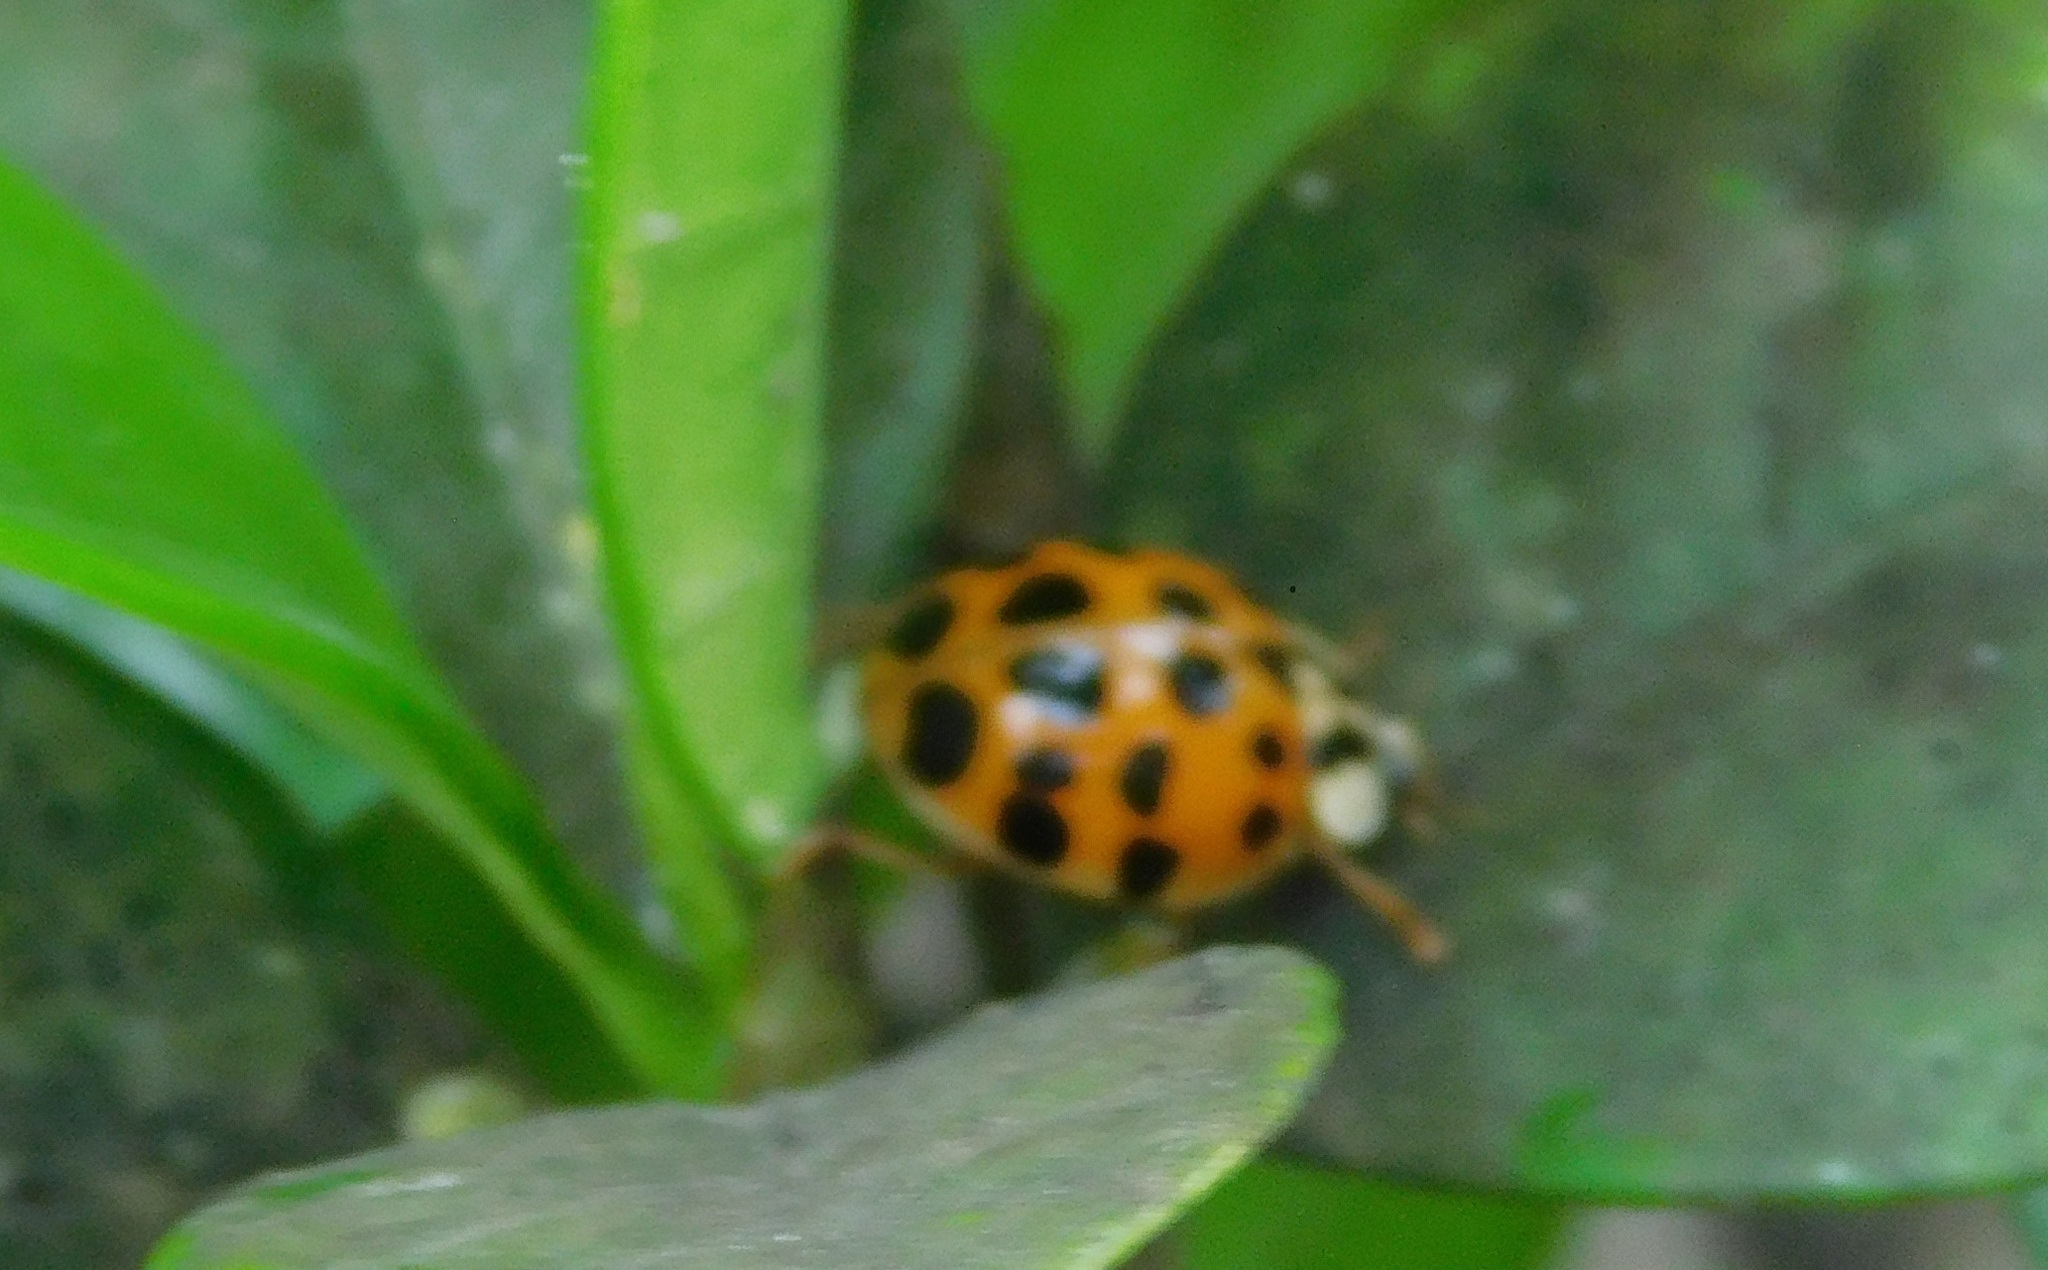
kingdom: Animalia
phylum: Arthropoda
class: Insecta
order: Coleoptera
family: Coccinellidae
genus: Harmonia
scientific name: Harmonia axyridis
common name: Harlequin ladybird
